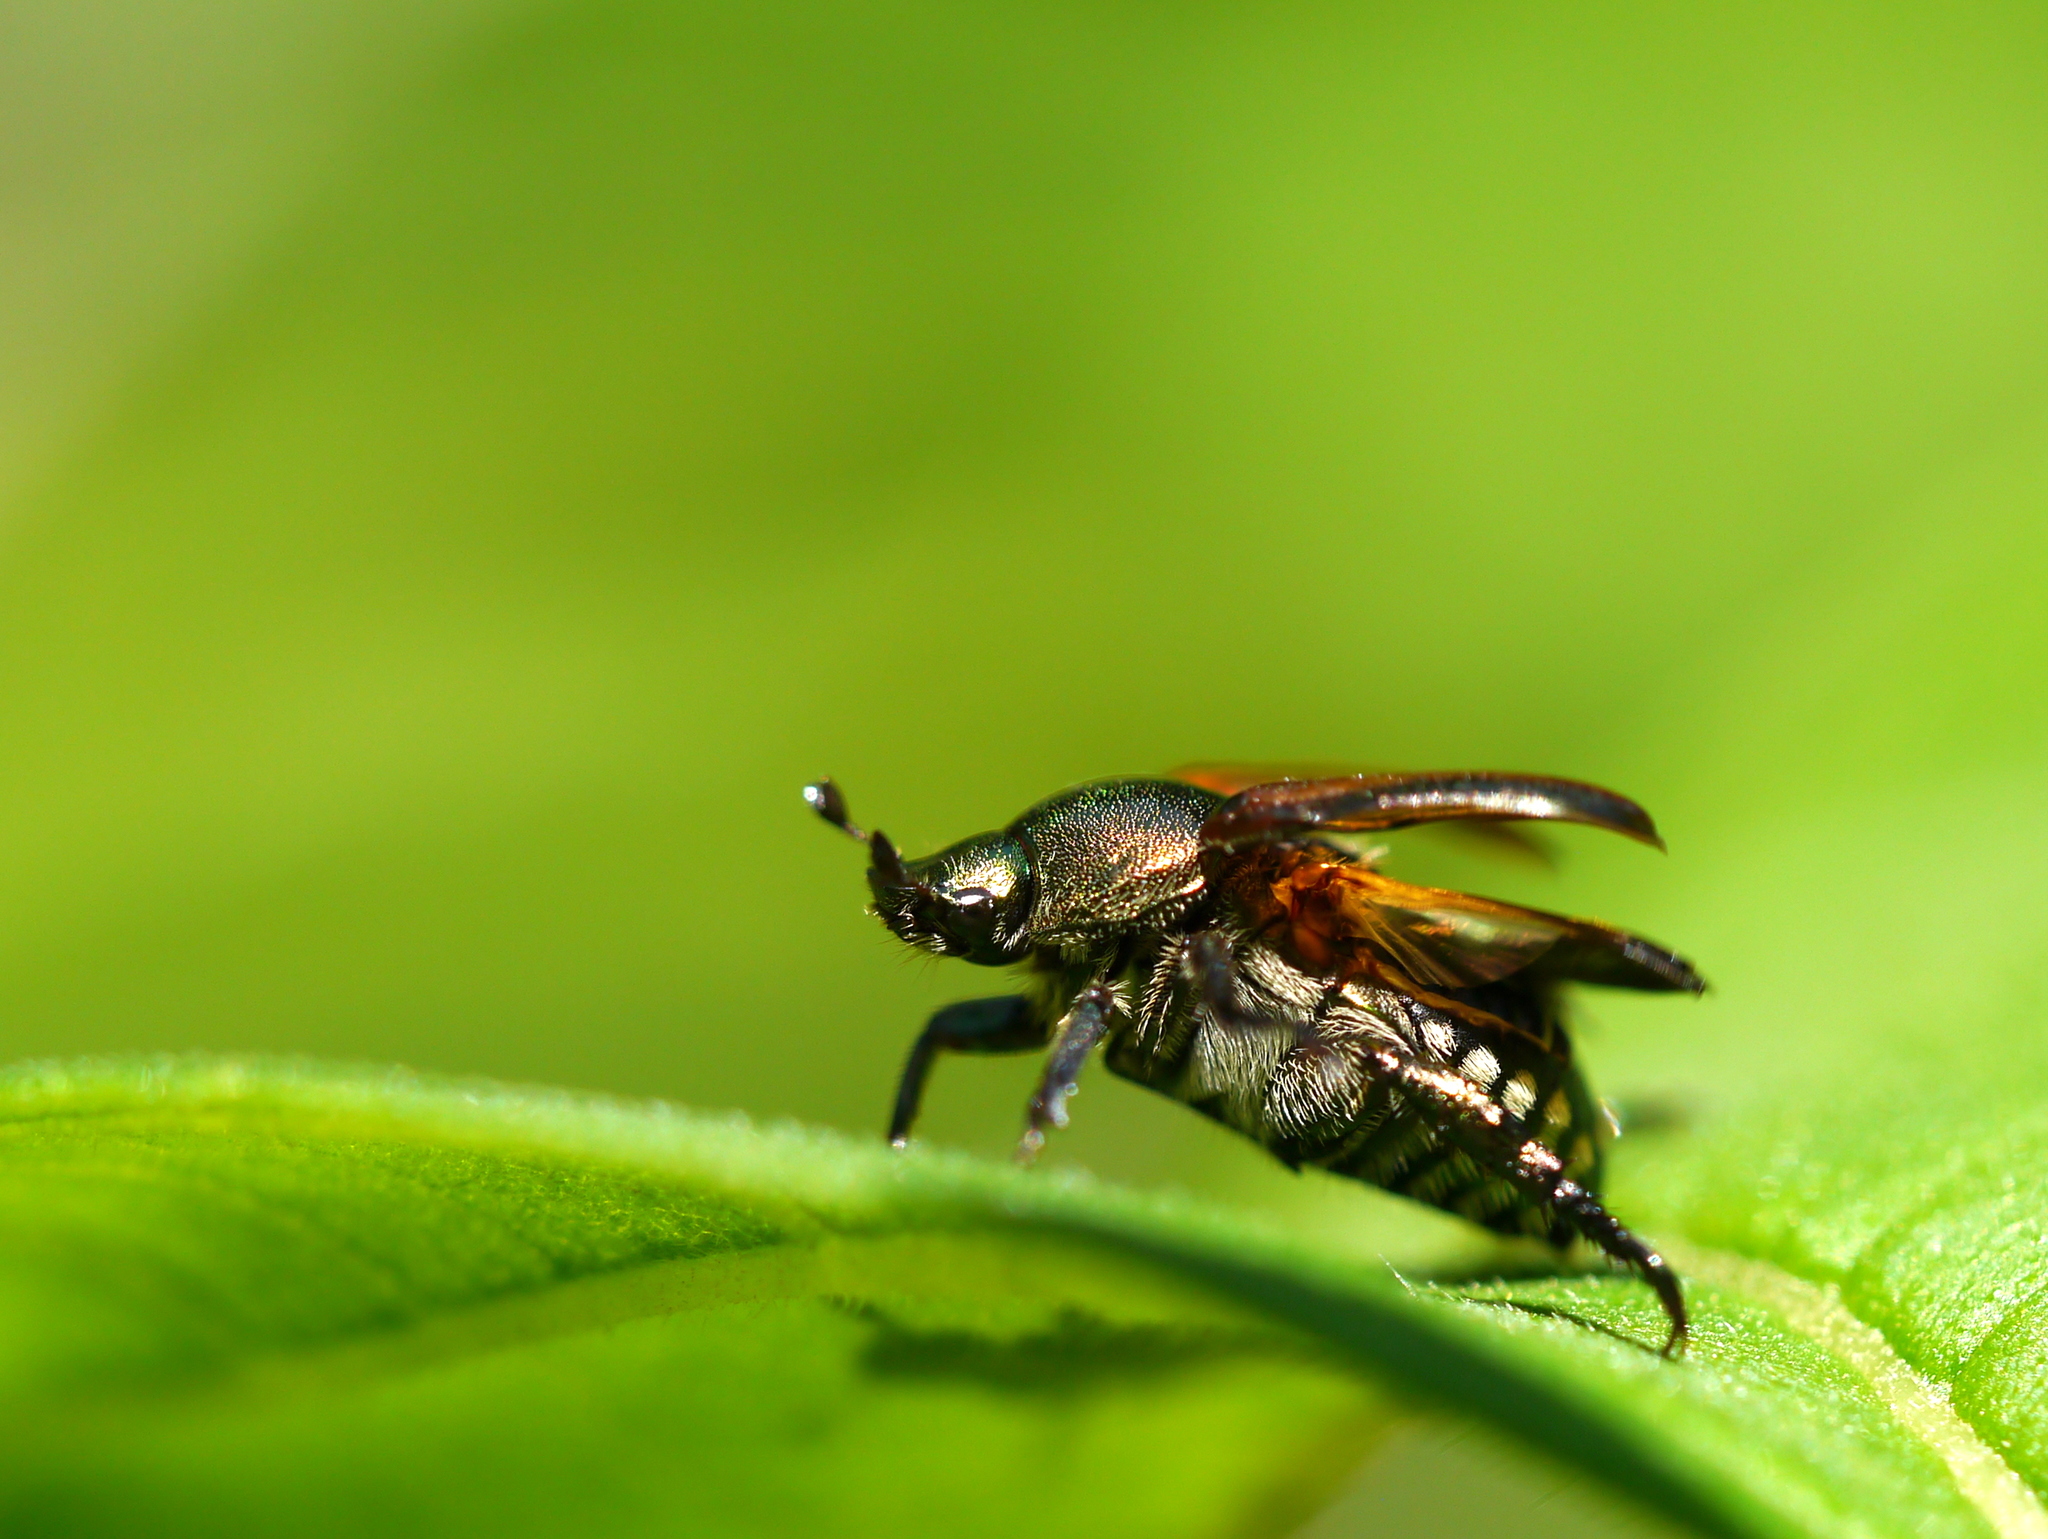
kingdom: Animalia
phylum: Arthropoda
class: Insecta
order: Coleoptera
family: Scarabaeidae
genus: Popillia
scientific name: Popillia japonica
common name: Japanese beetle
